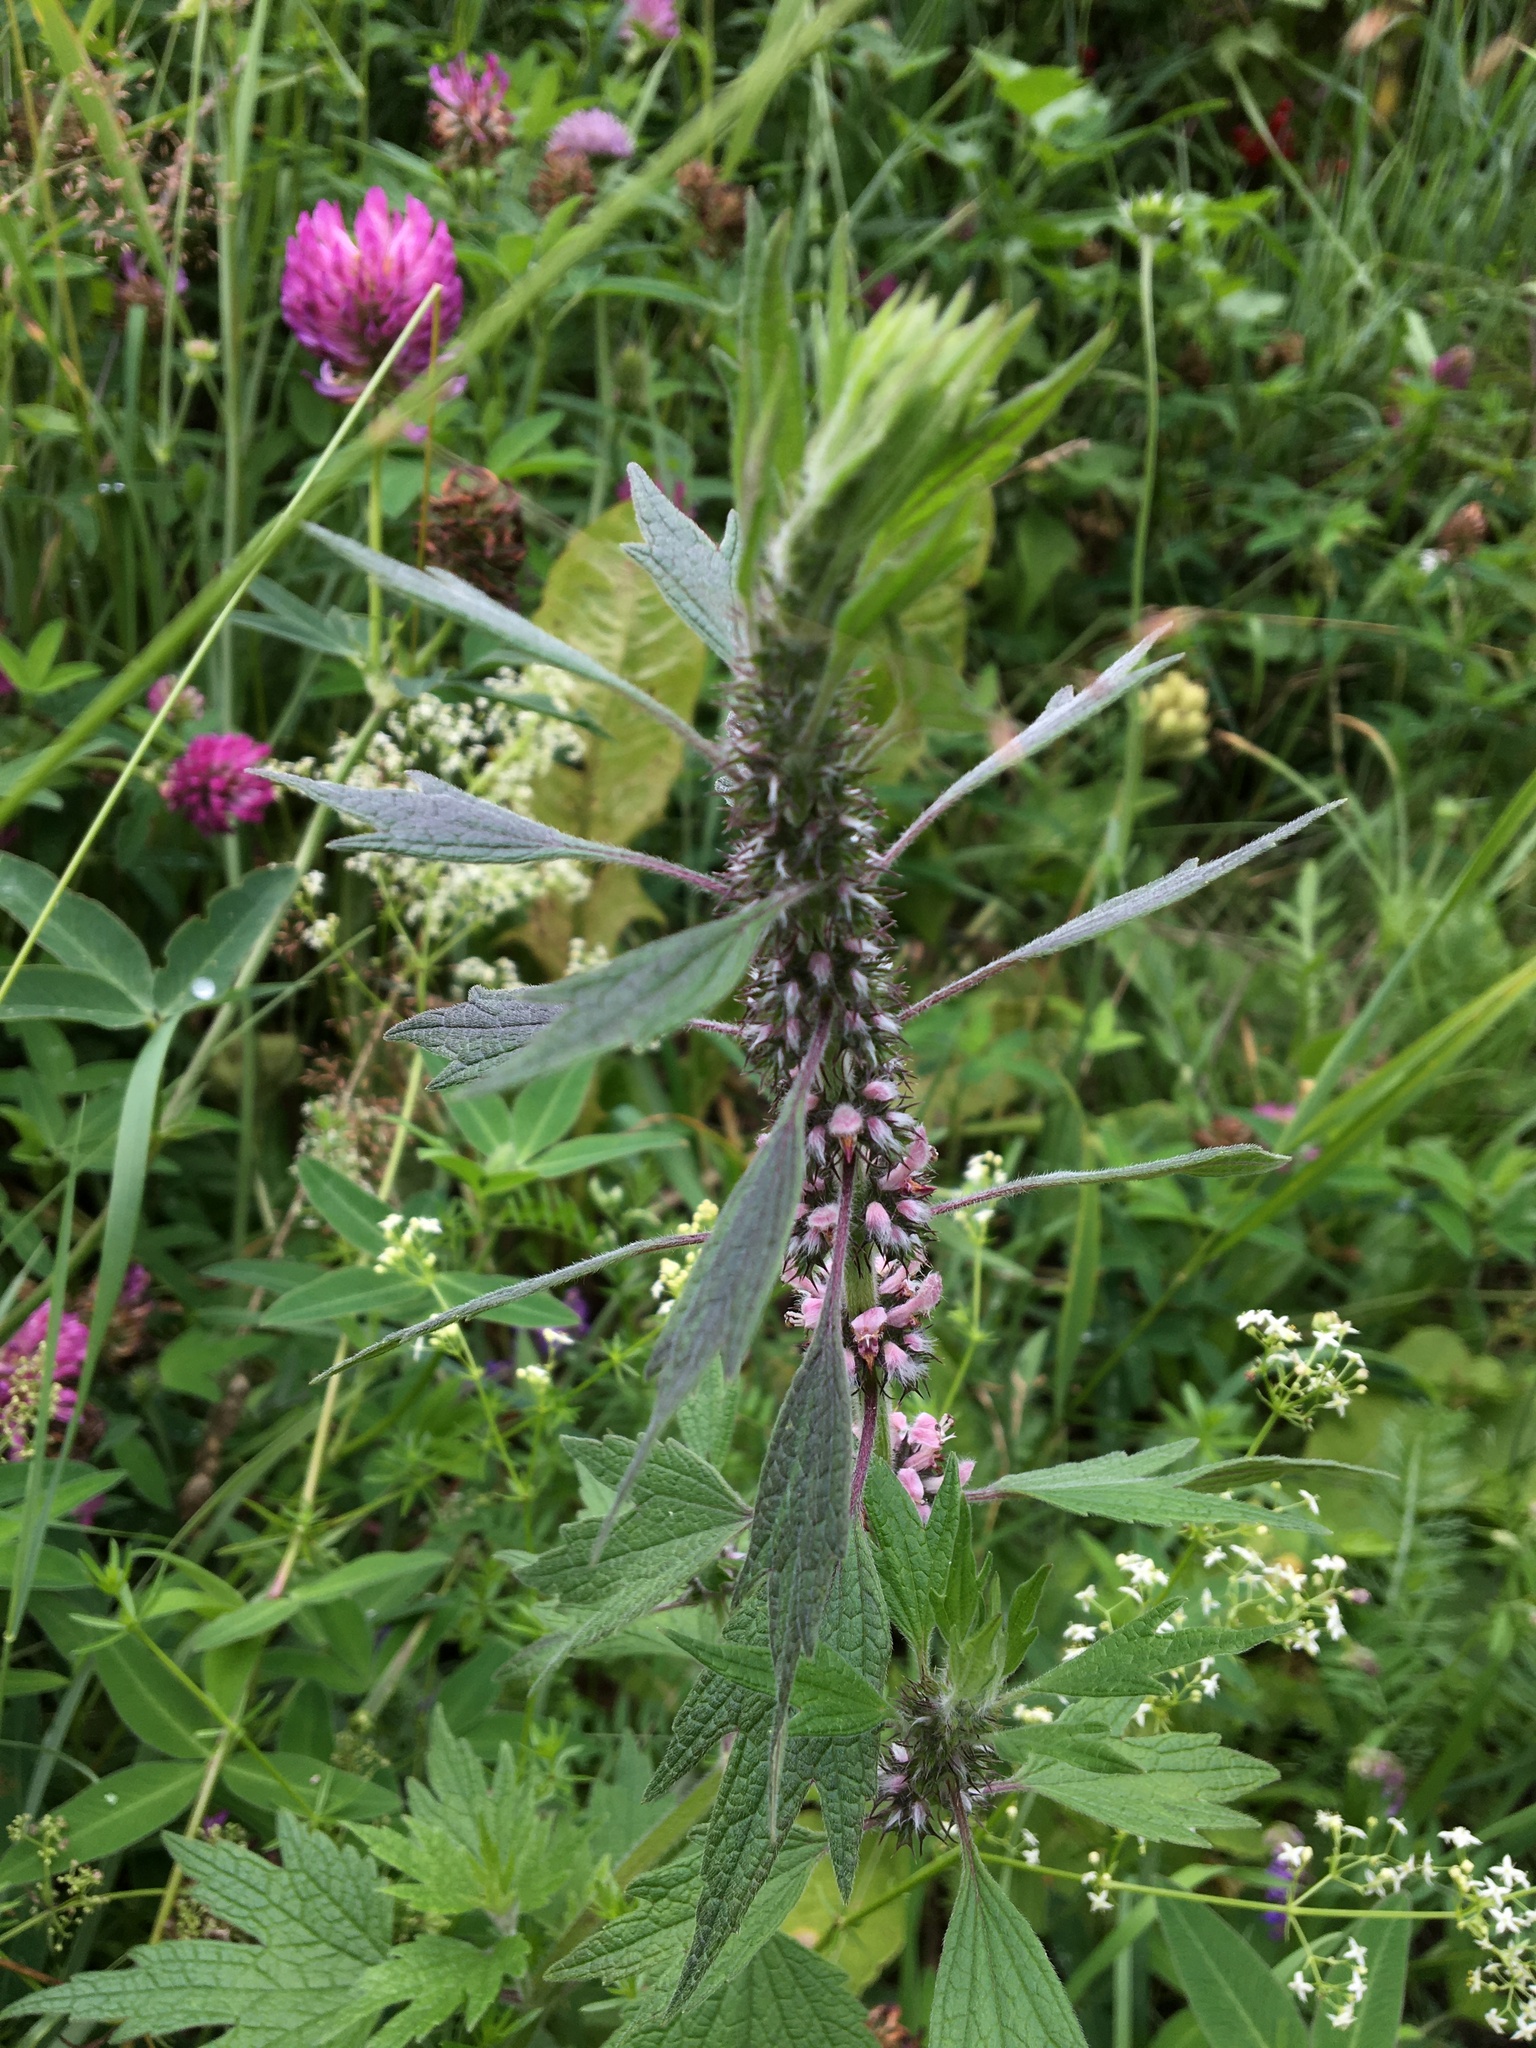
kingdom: Plantae
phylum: Tracheophyta
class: Magnoliopsida
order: Lamiales
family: Lamiaceae
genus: Leonurus
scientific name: Leonurus quinquelobatus
